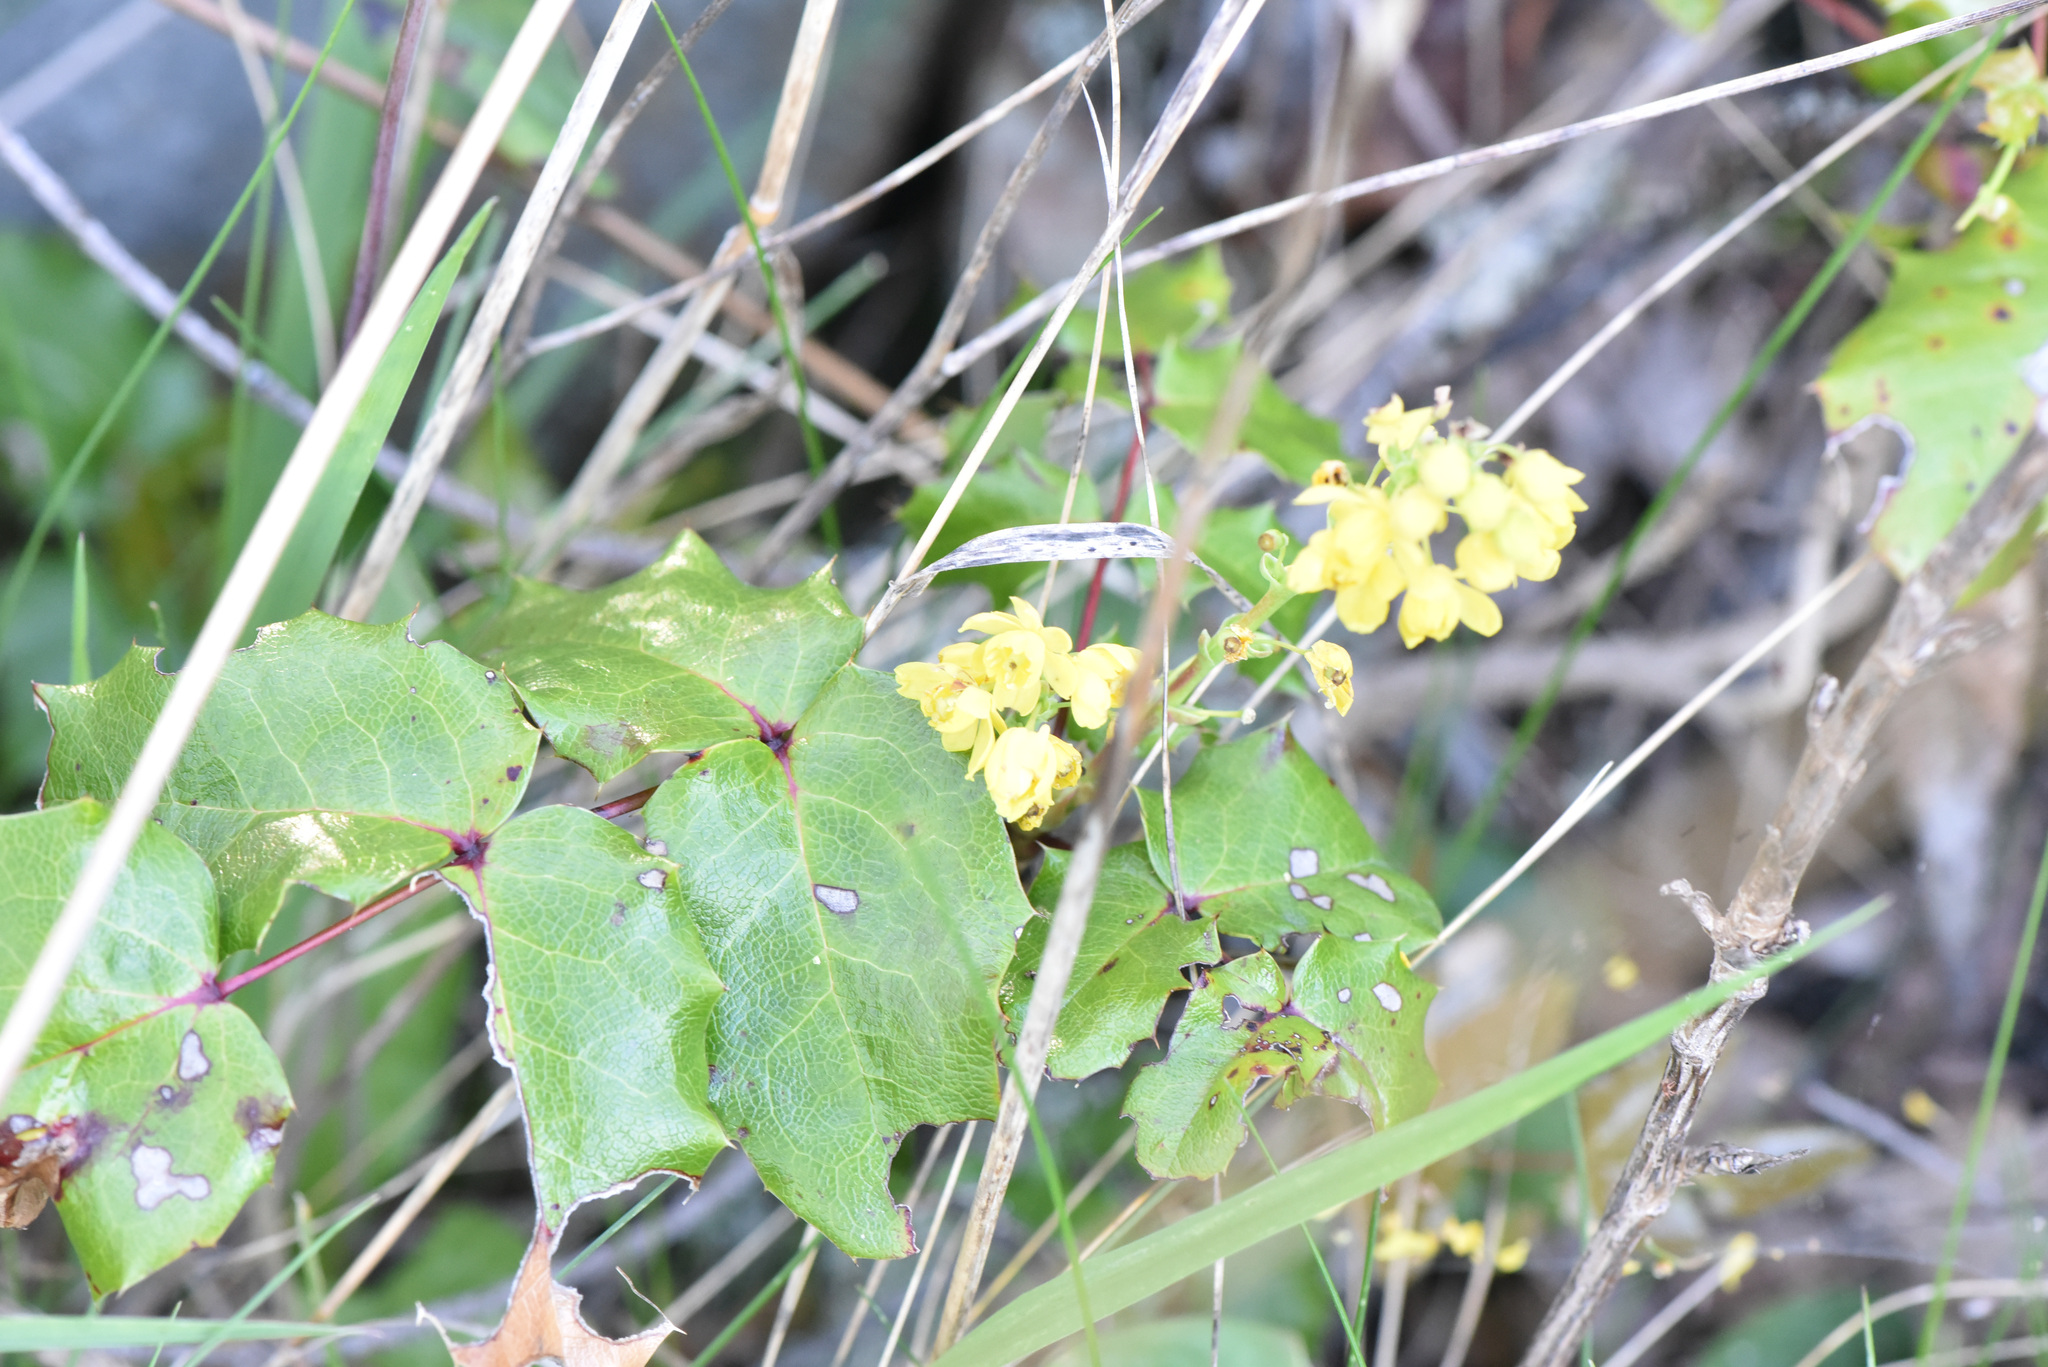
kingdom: Plantae
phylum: Tracheophyta
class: Magnoliopsida
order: Ranunculales
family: Berberidaceae
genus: Mahonia
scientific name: Mahonia aquifolium
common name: Oregon-grape
